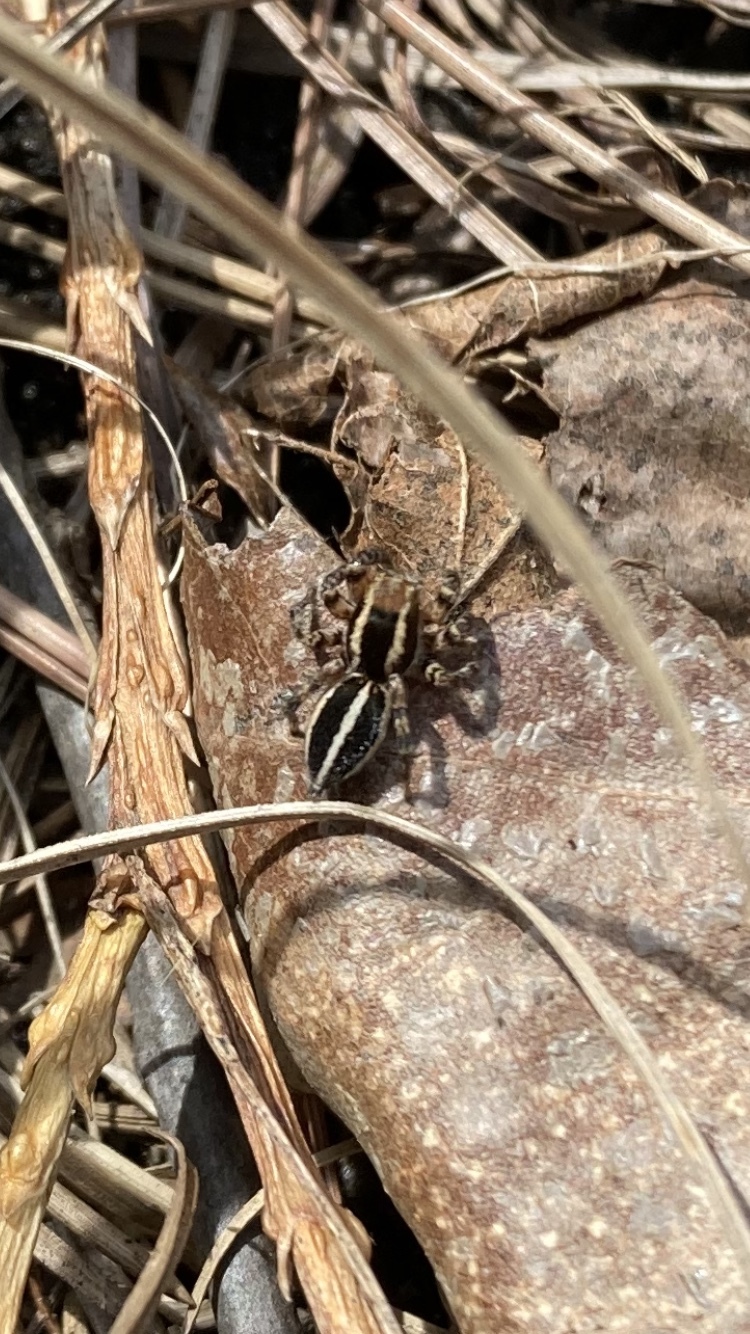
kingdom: Animalia
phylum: Arthropoda
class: Arachnida
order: Araneae
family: Salticidae
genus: Phlegra
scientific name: Phlegra hentzi
